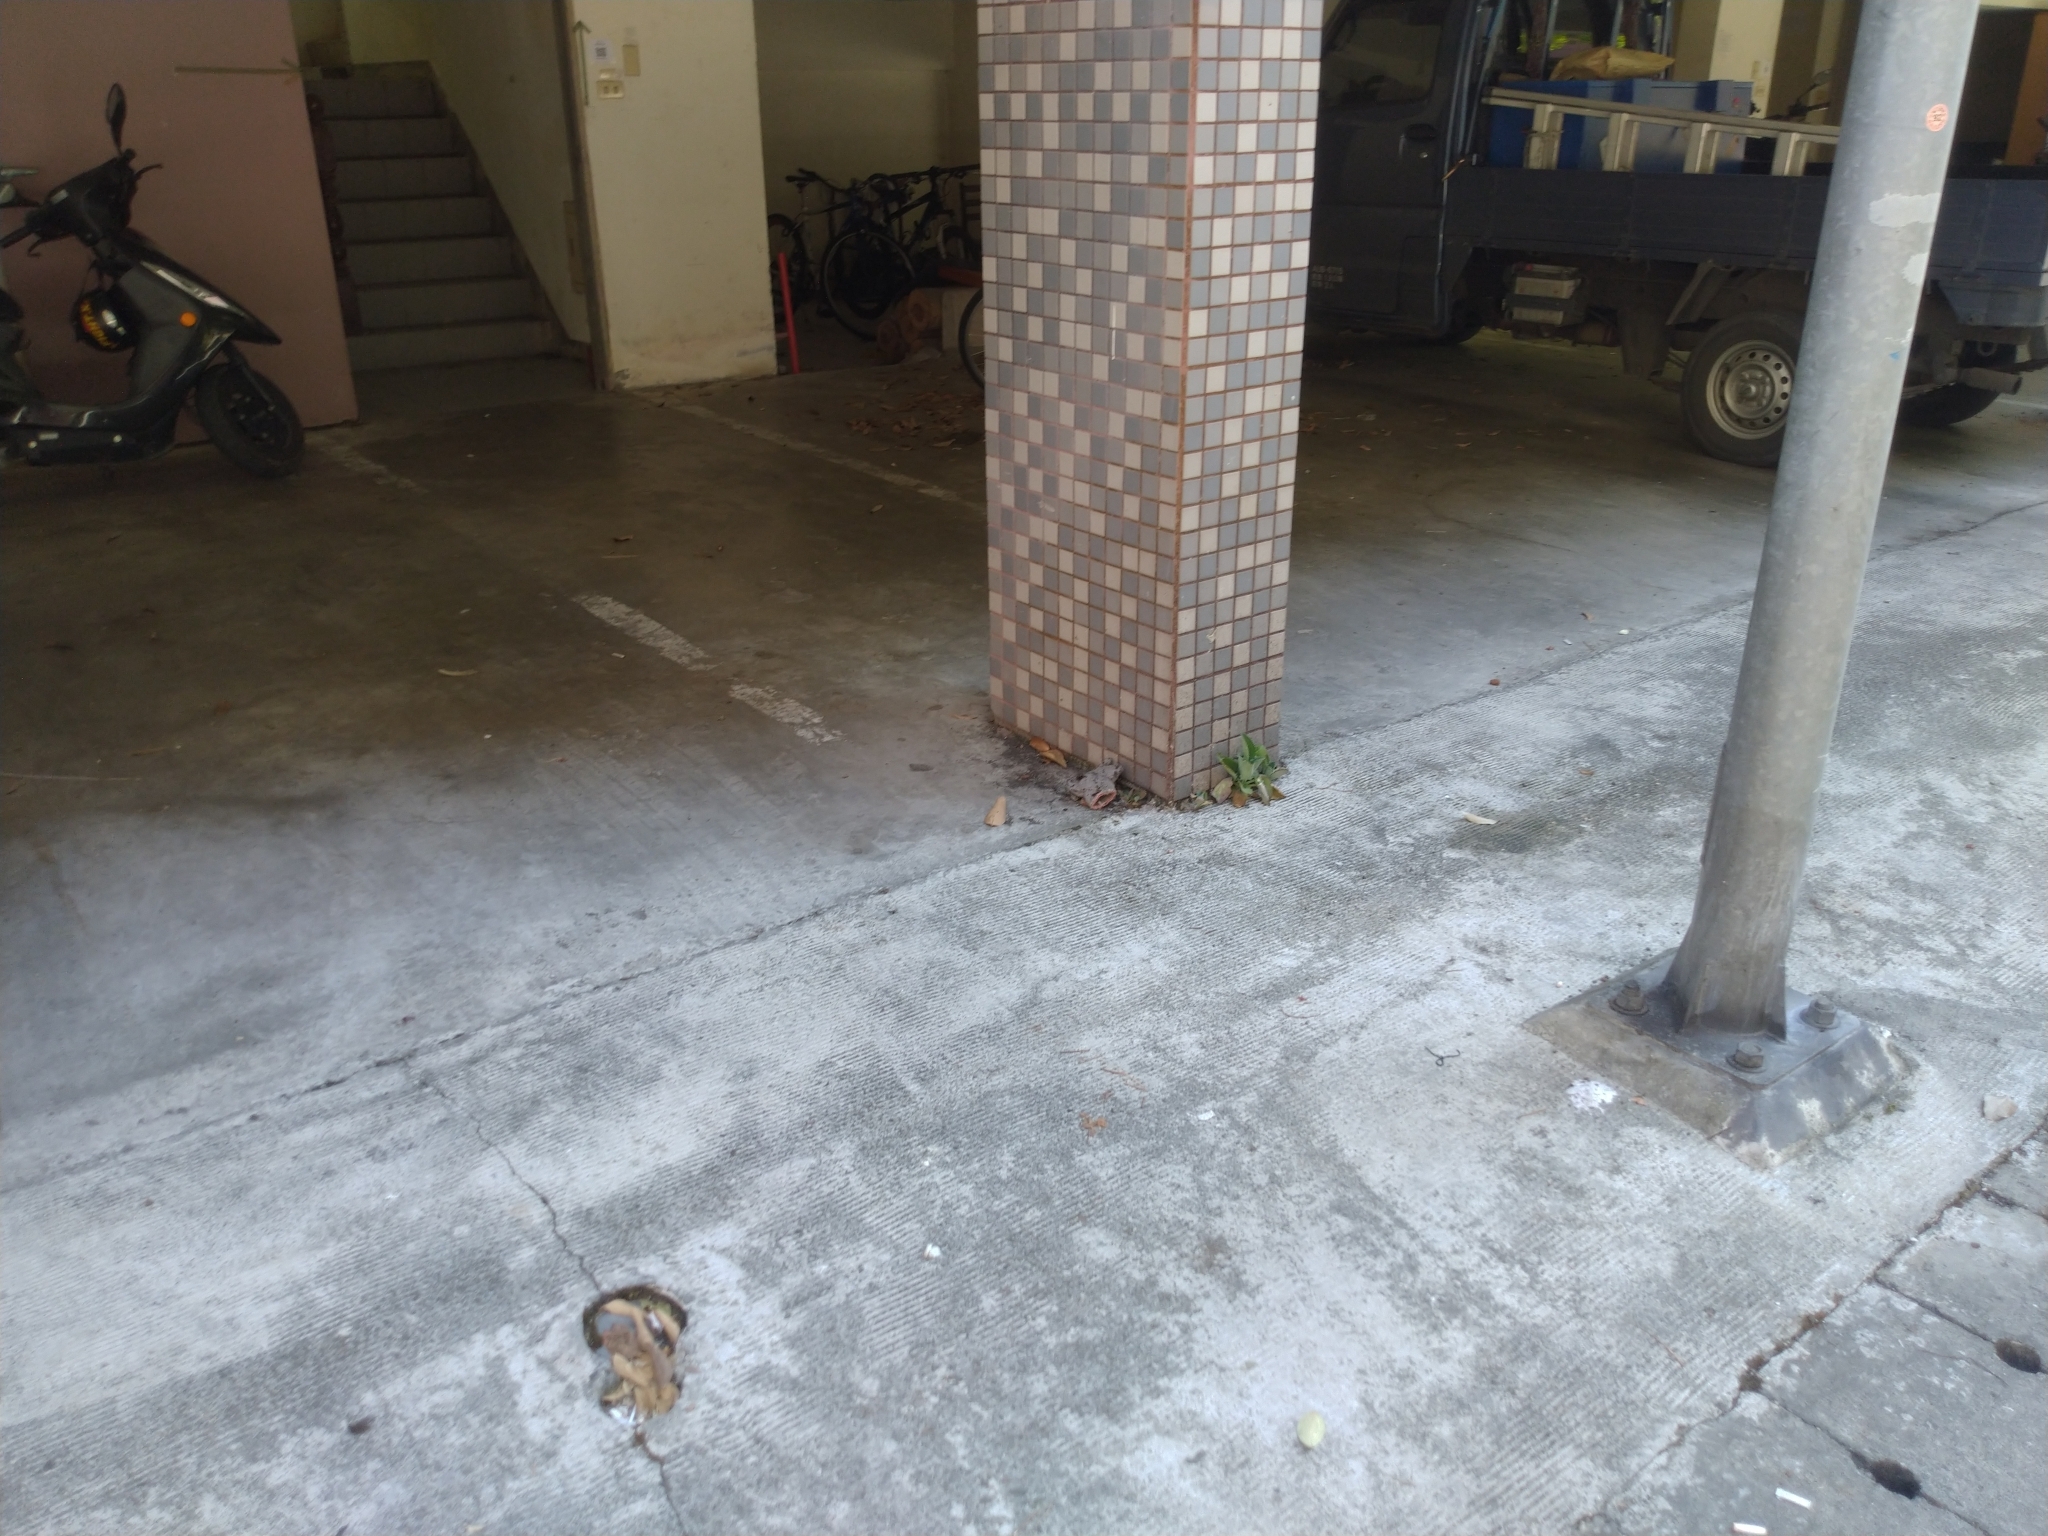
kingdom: Plantae
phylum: Tracheophyta
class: Magnoliopsida
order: Saxifragales
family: Crassulaceae
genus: Kalanchoe
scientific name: Kalanchoe laetivirens
